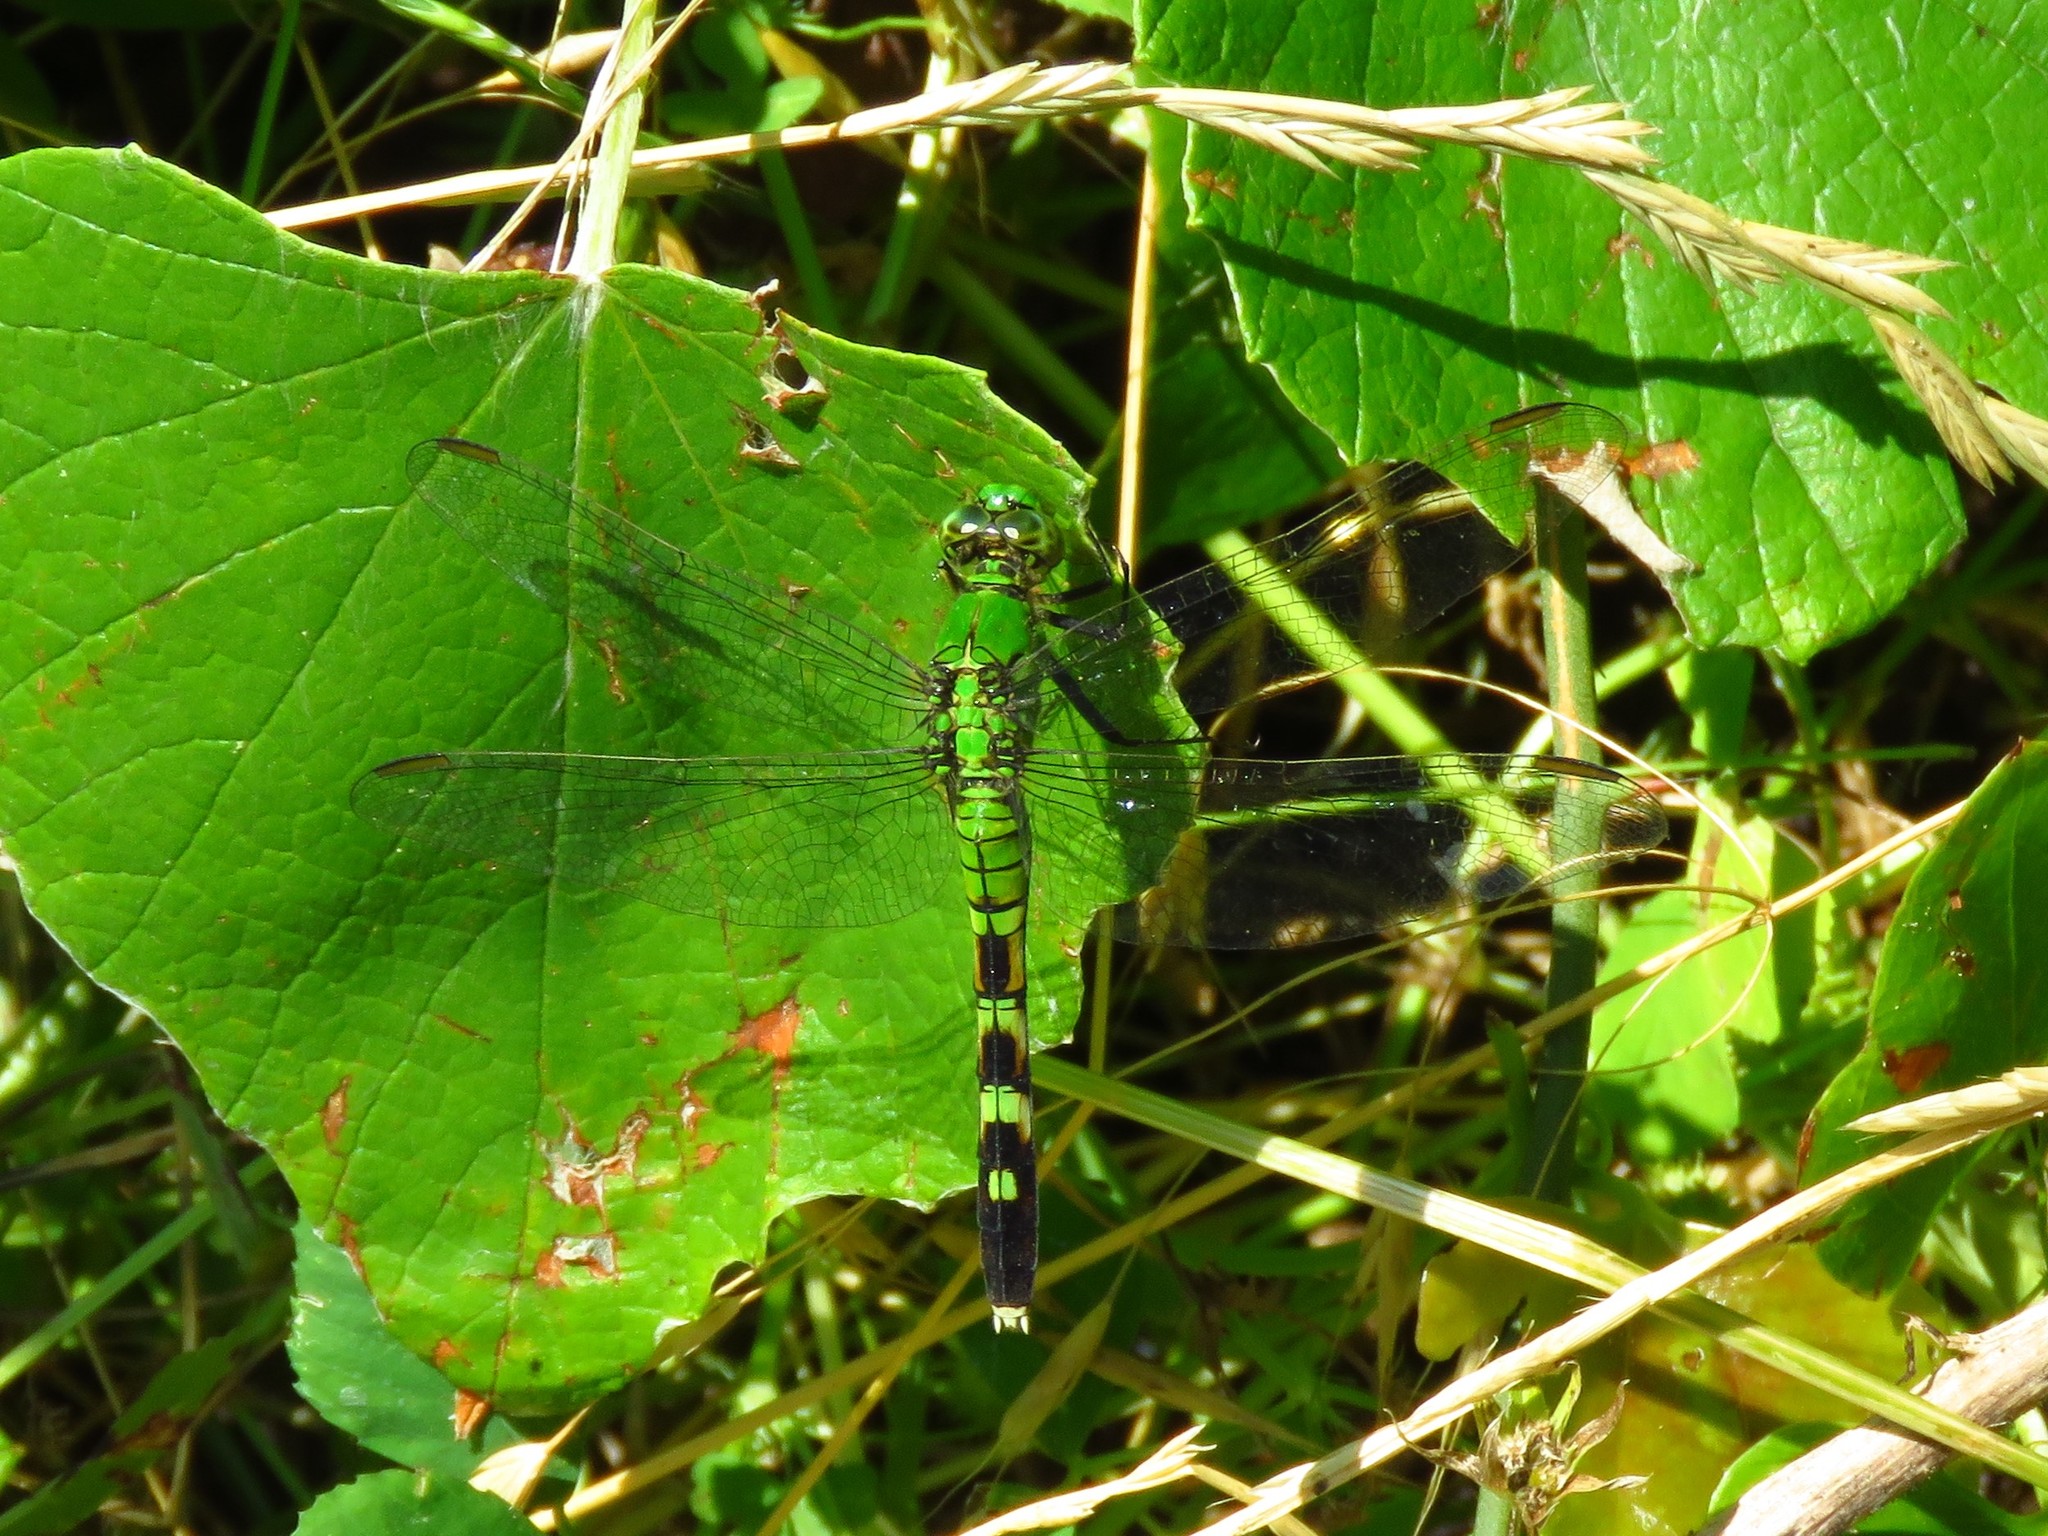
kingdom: Animalia
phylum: Arthropoda
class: Insecta
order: Odonata
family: Libellulidae
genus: Erythemis
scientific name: Erythemis simplicicollis
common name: Eastern pondhawk
